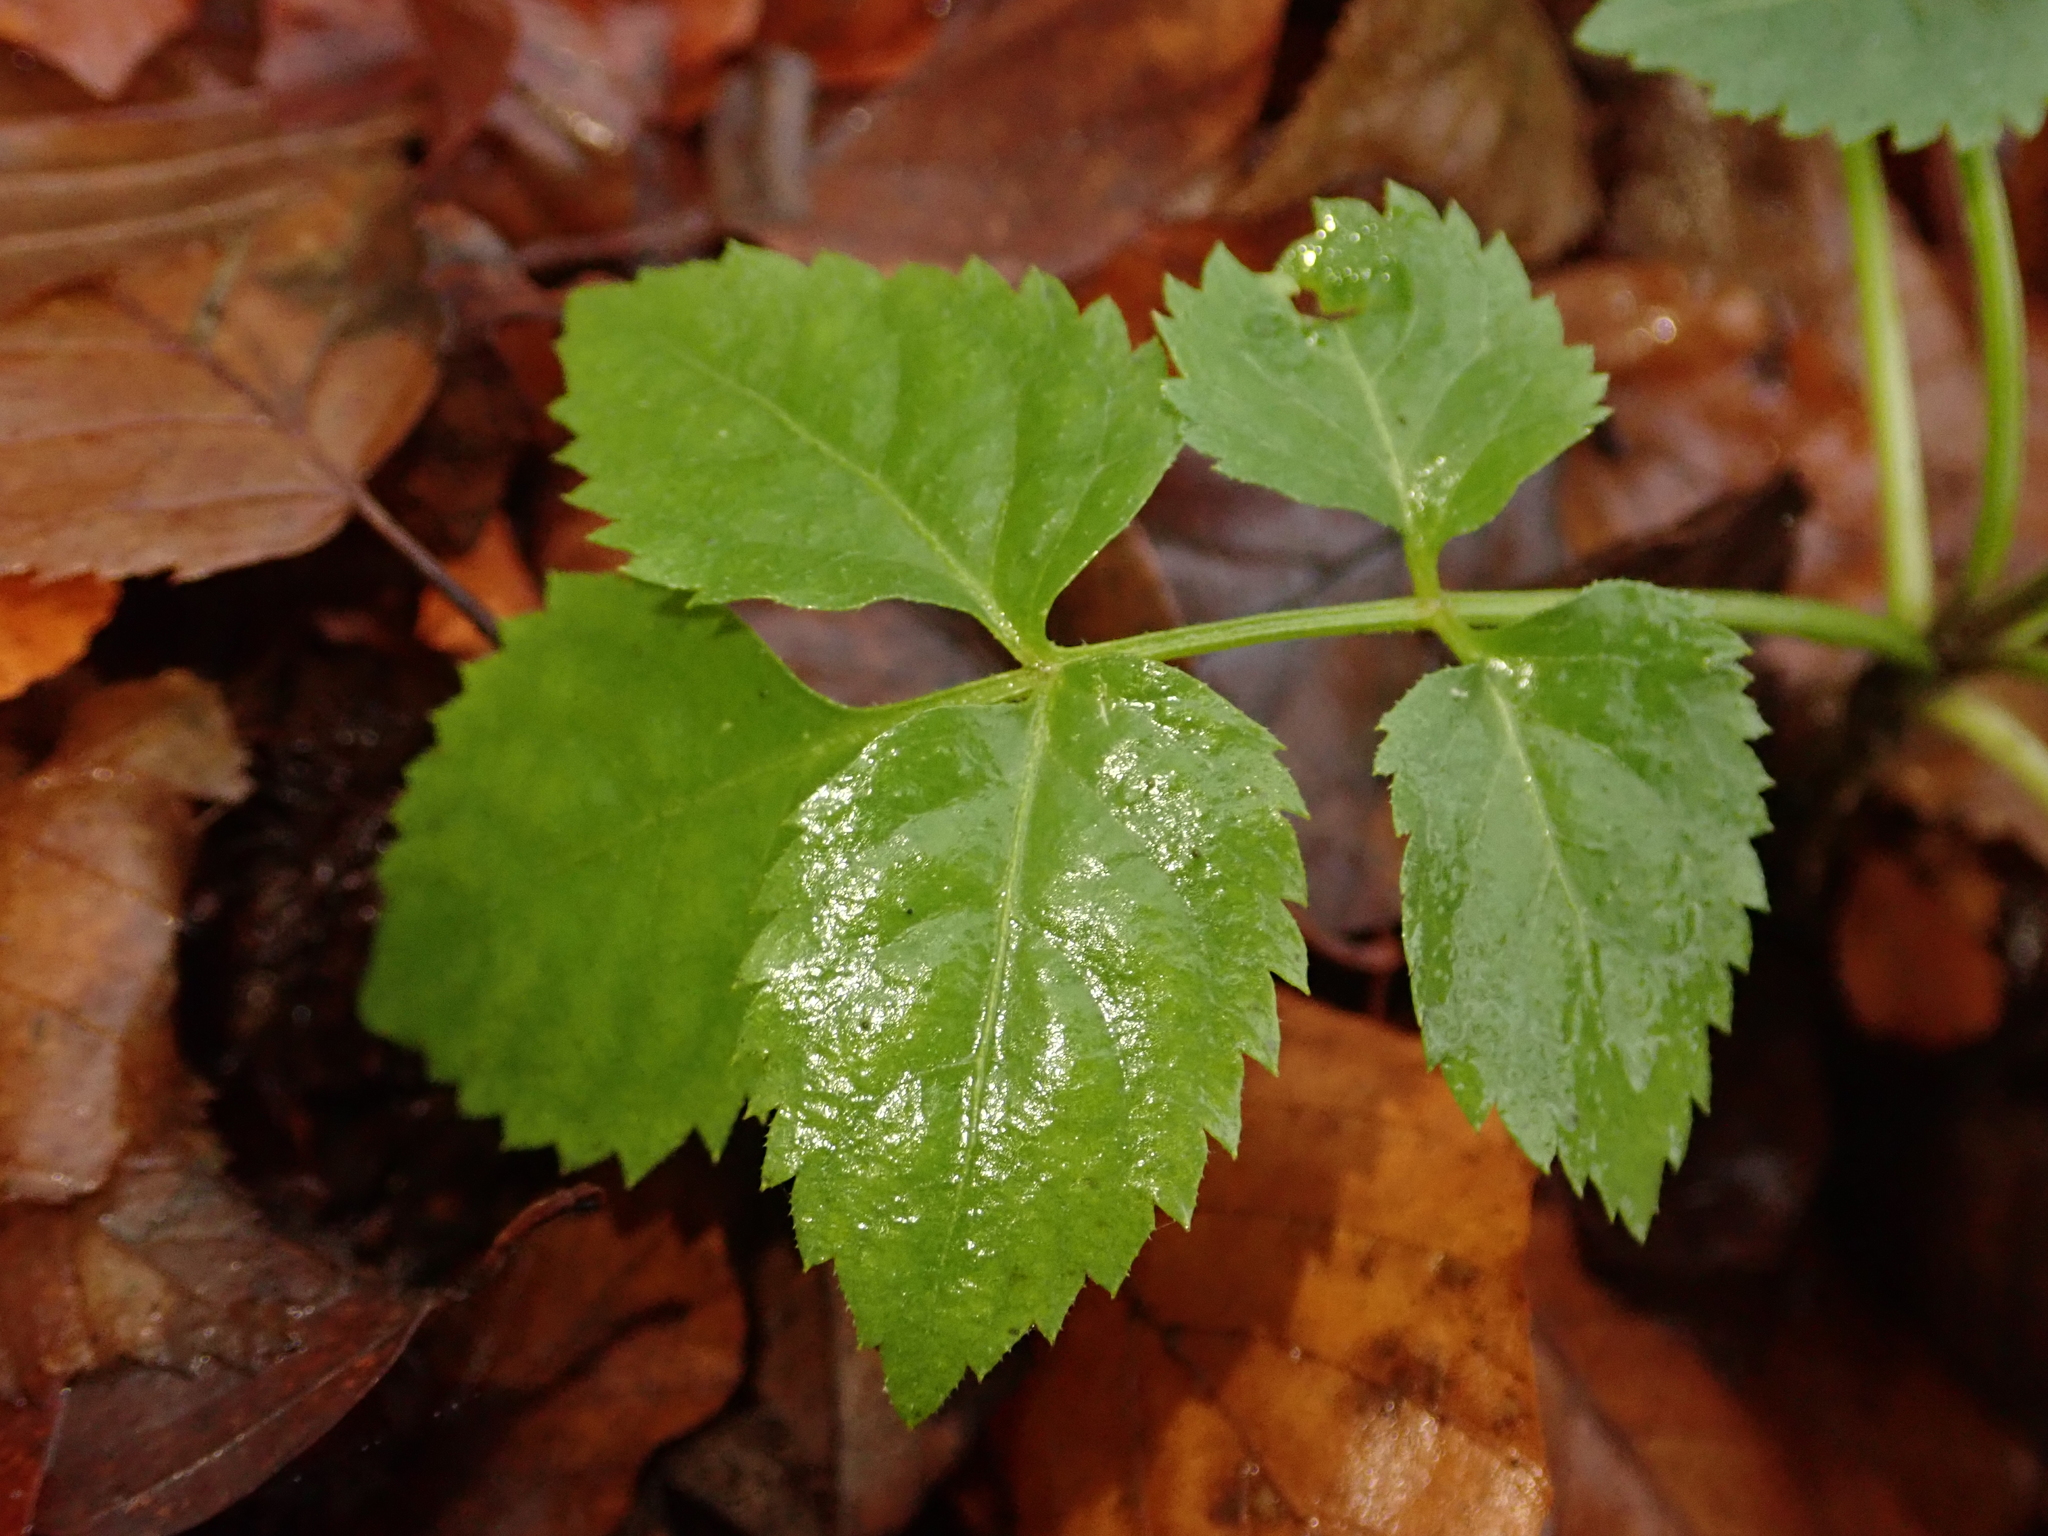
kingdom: Plantae
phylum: Tracheophyta
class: Magnoliopsida
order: Apiales
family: Apiaceae
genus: Aegopodium
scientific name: Aegopodium podagraria
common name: Ground-elder
